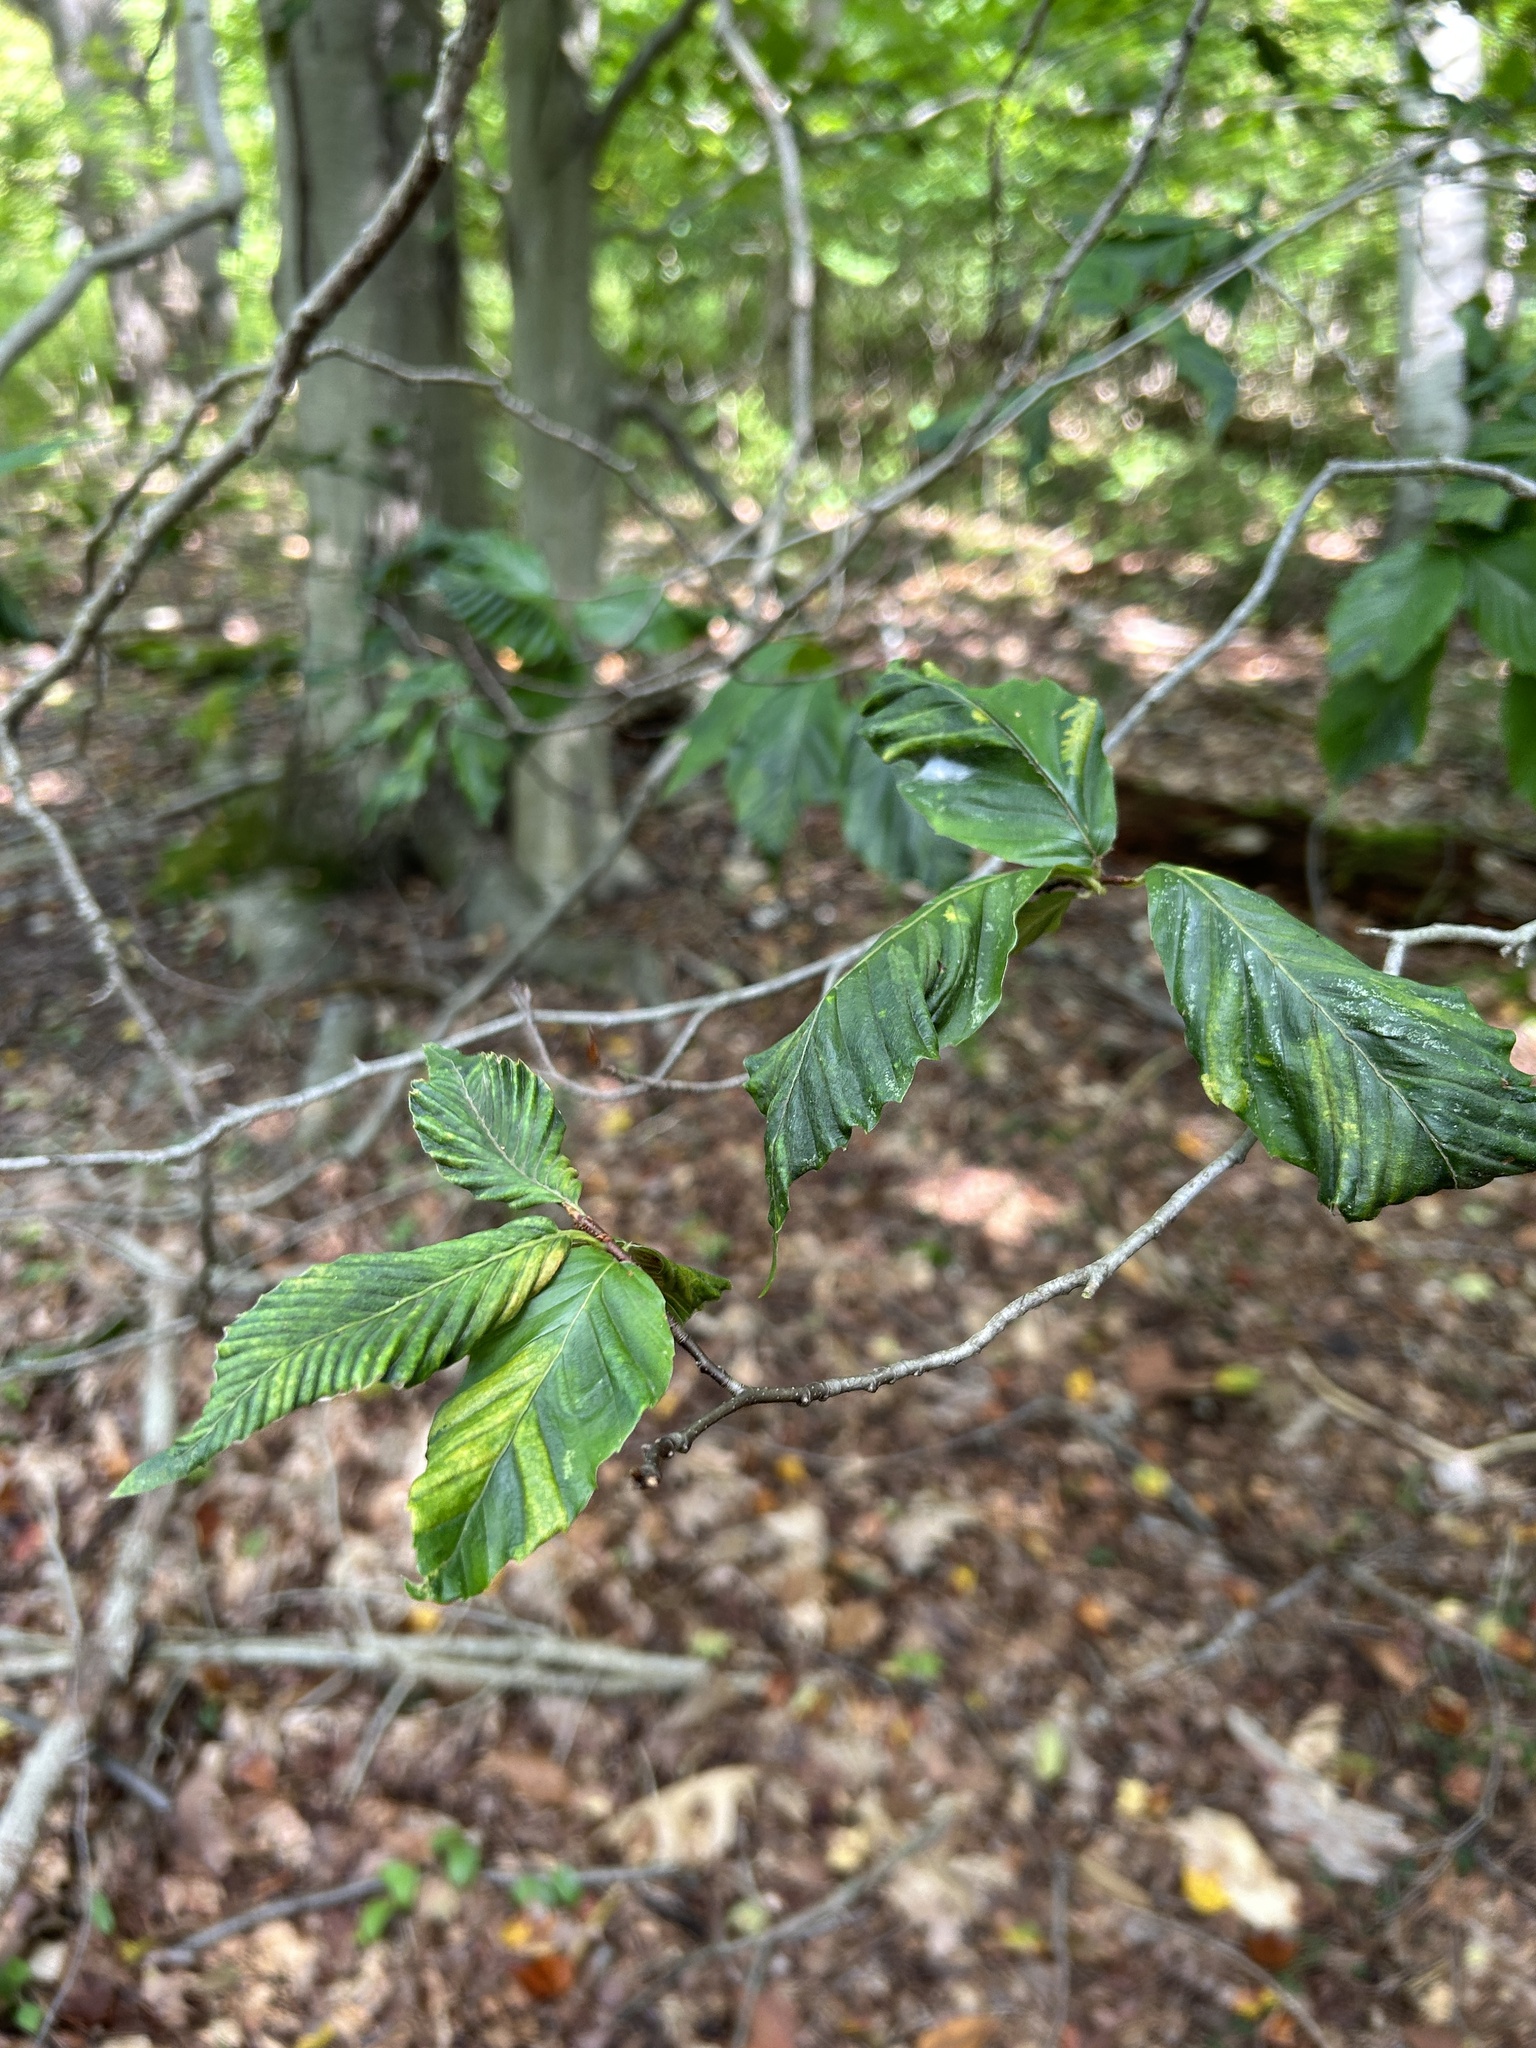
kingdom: Animalia
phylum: Nematoda
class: Chromadorea
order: Rhabditida
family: Anguinidae
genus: Litylenchus
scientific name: Litylenchus crenatae
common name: Beech leaf disease
